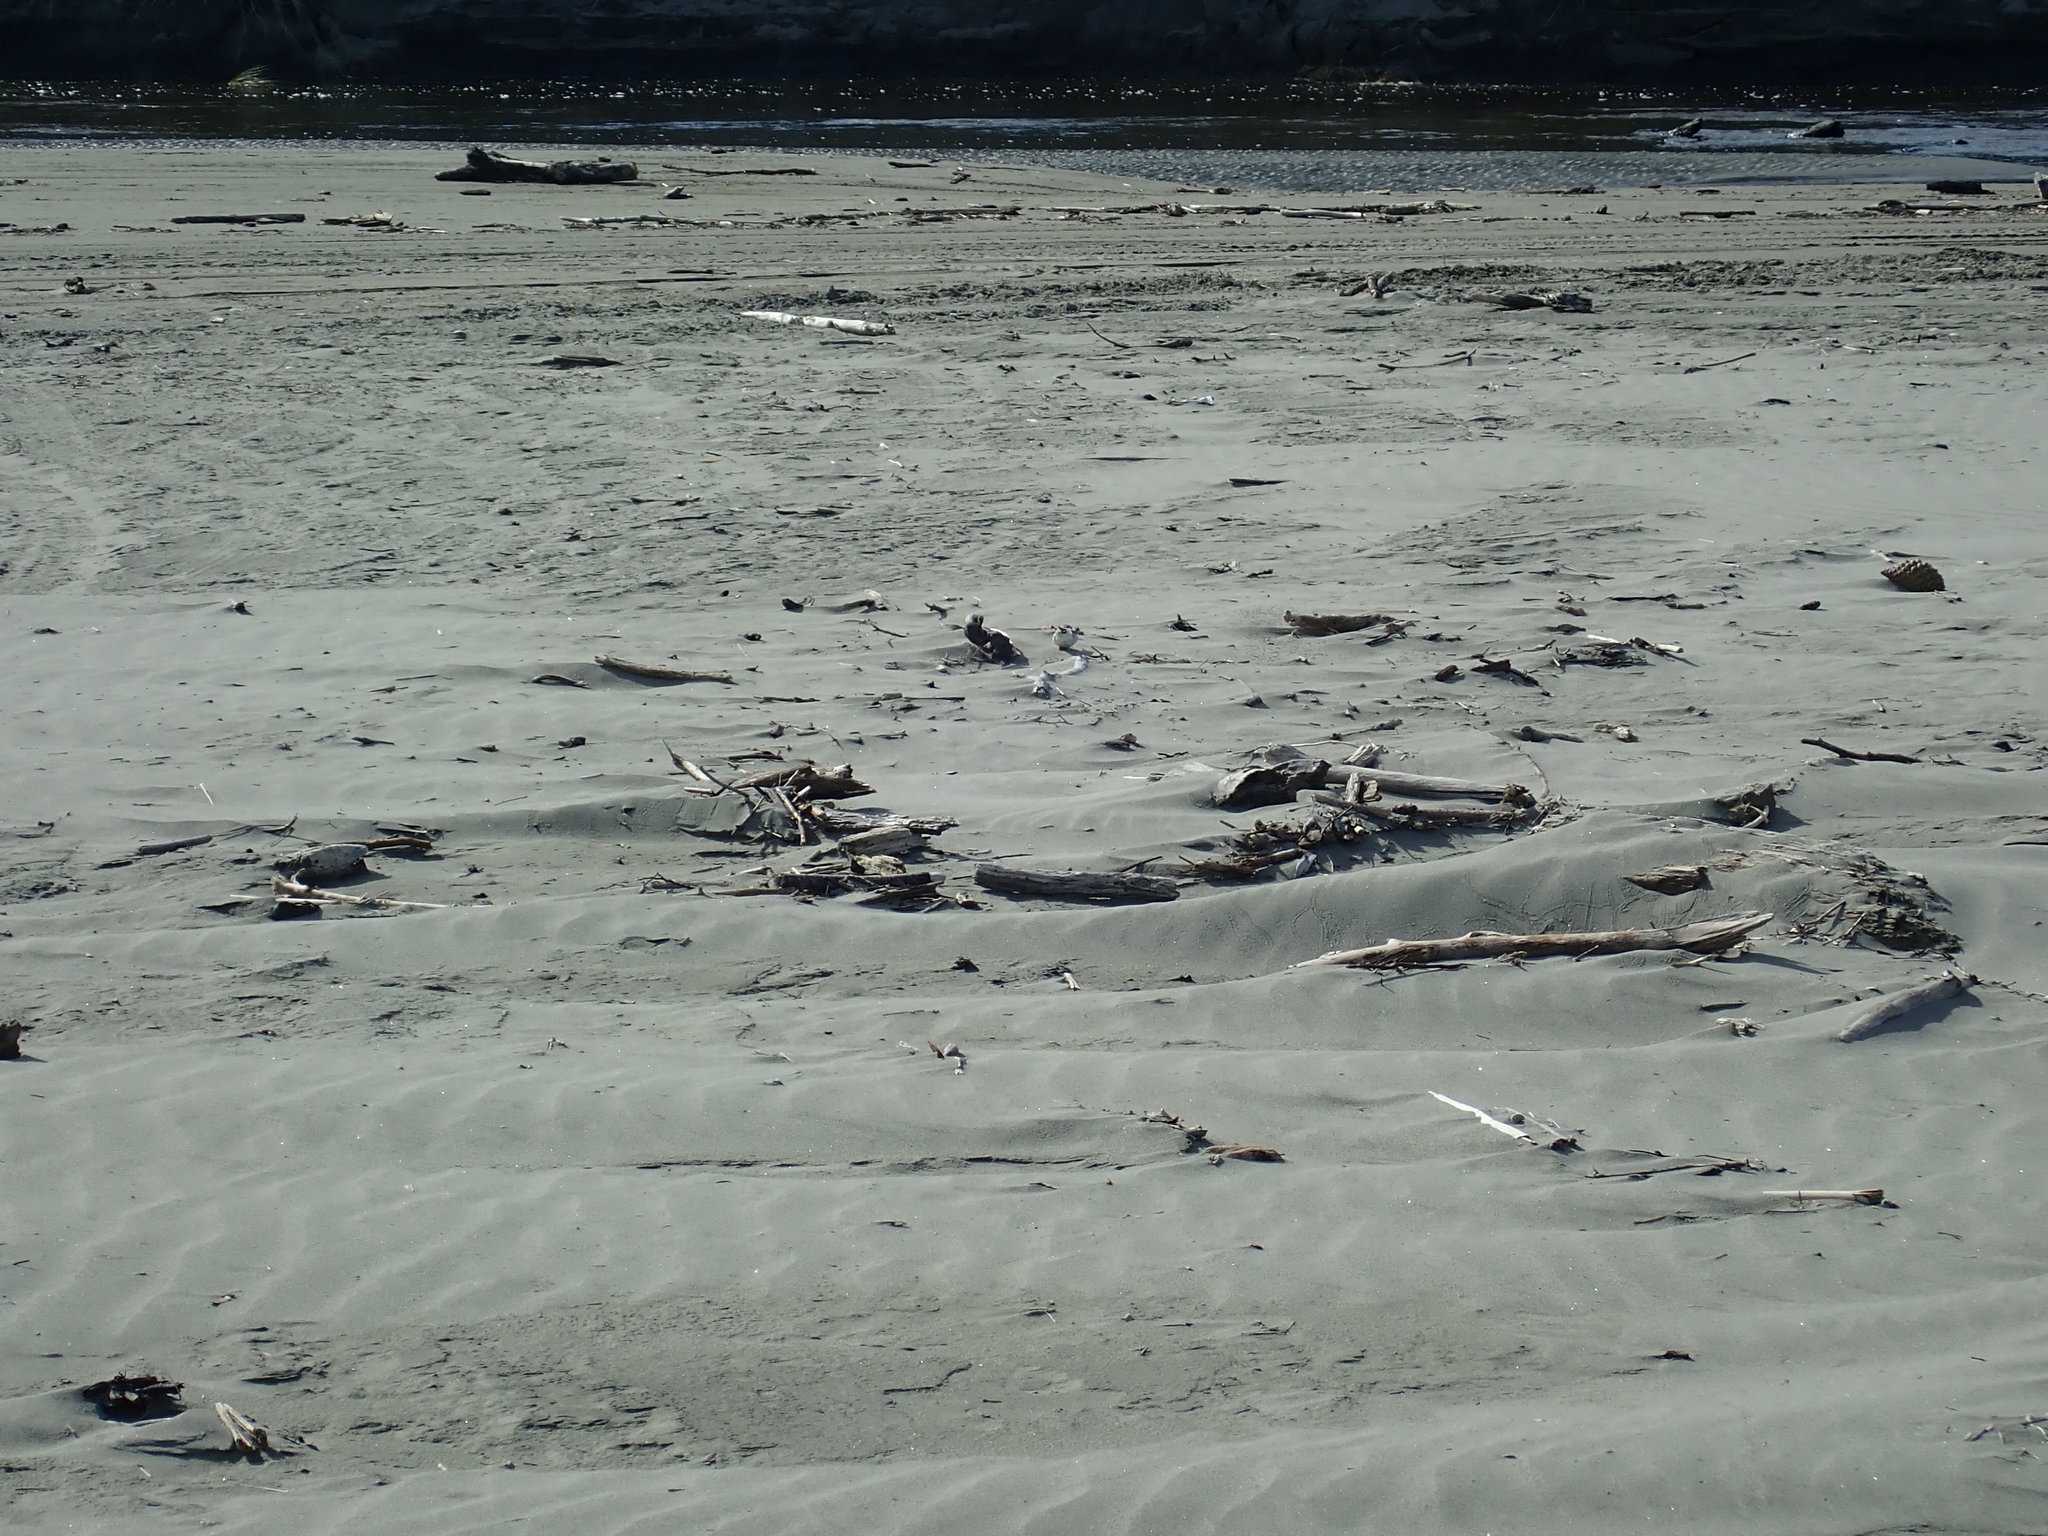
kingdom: Animalia
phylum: Chordata
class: Aves
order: Charadriiformes
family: Charadriidae
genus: Anarhynchus
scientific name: Anarhynchus
